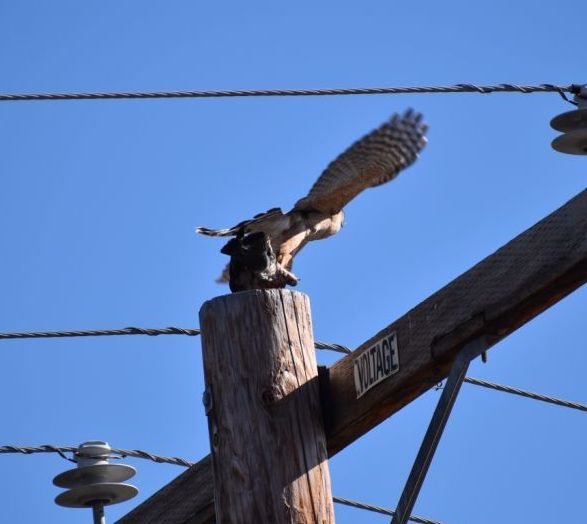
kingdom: Animalia
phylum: Chordata
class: Aves
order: Accipitriformes
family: Accipitridae
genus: Accipiter
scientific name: Accipiter cooperii
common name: Cooper's hawk
